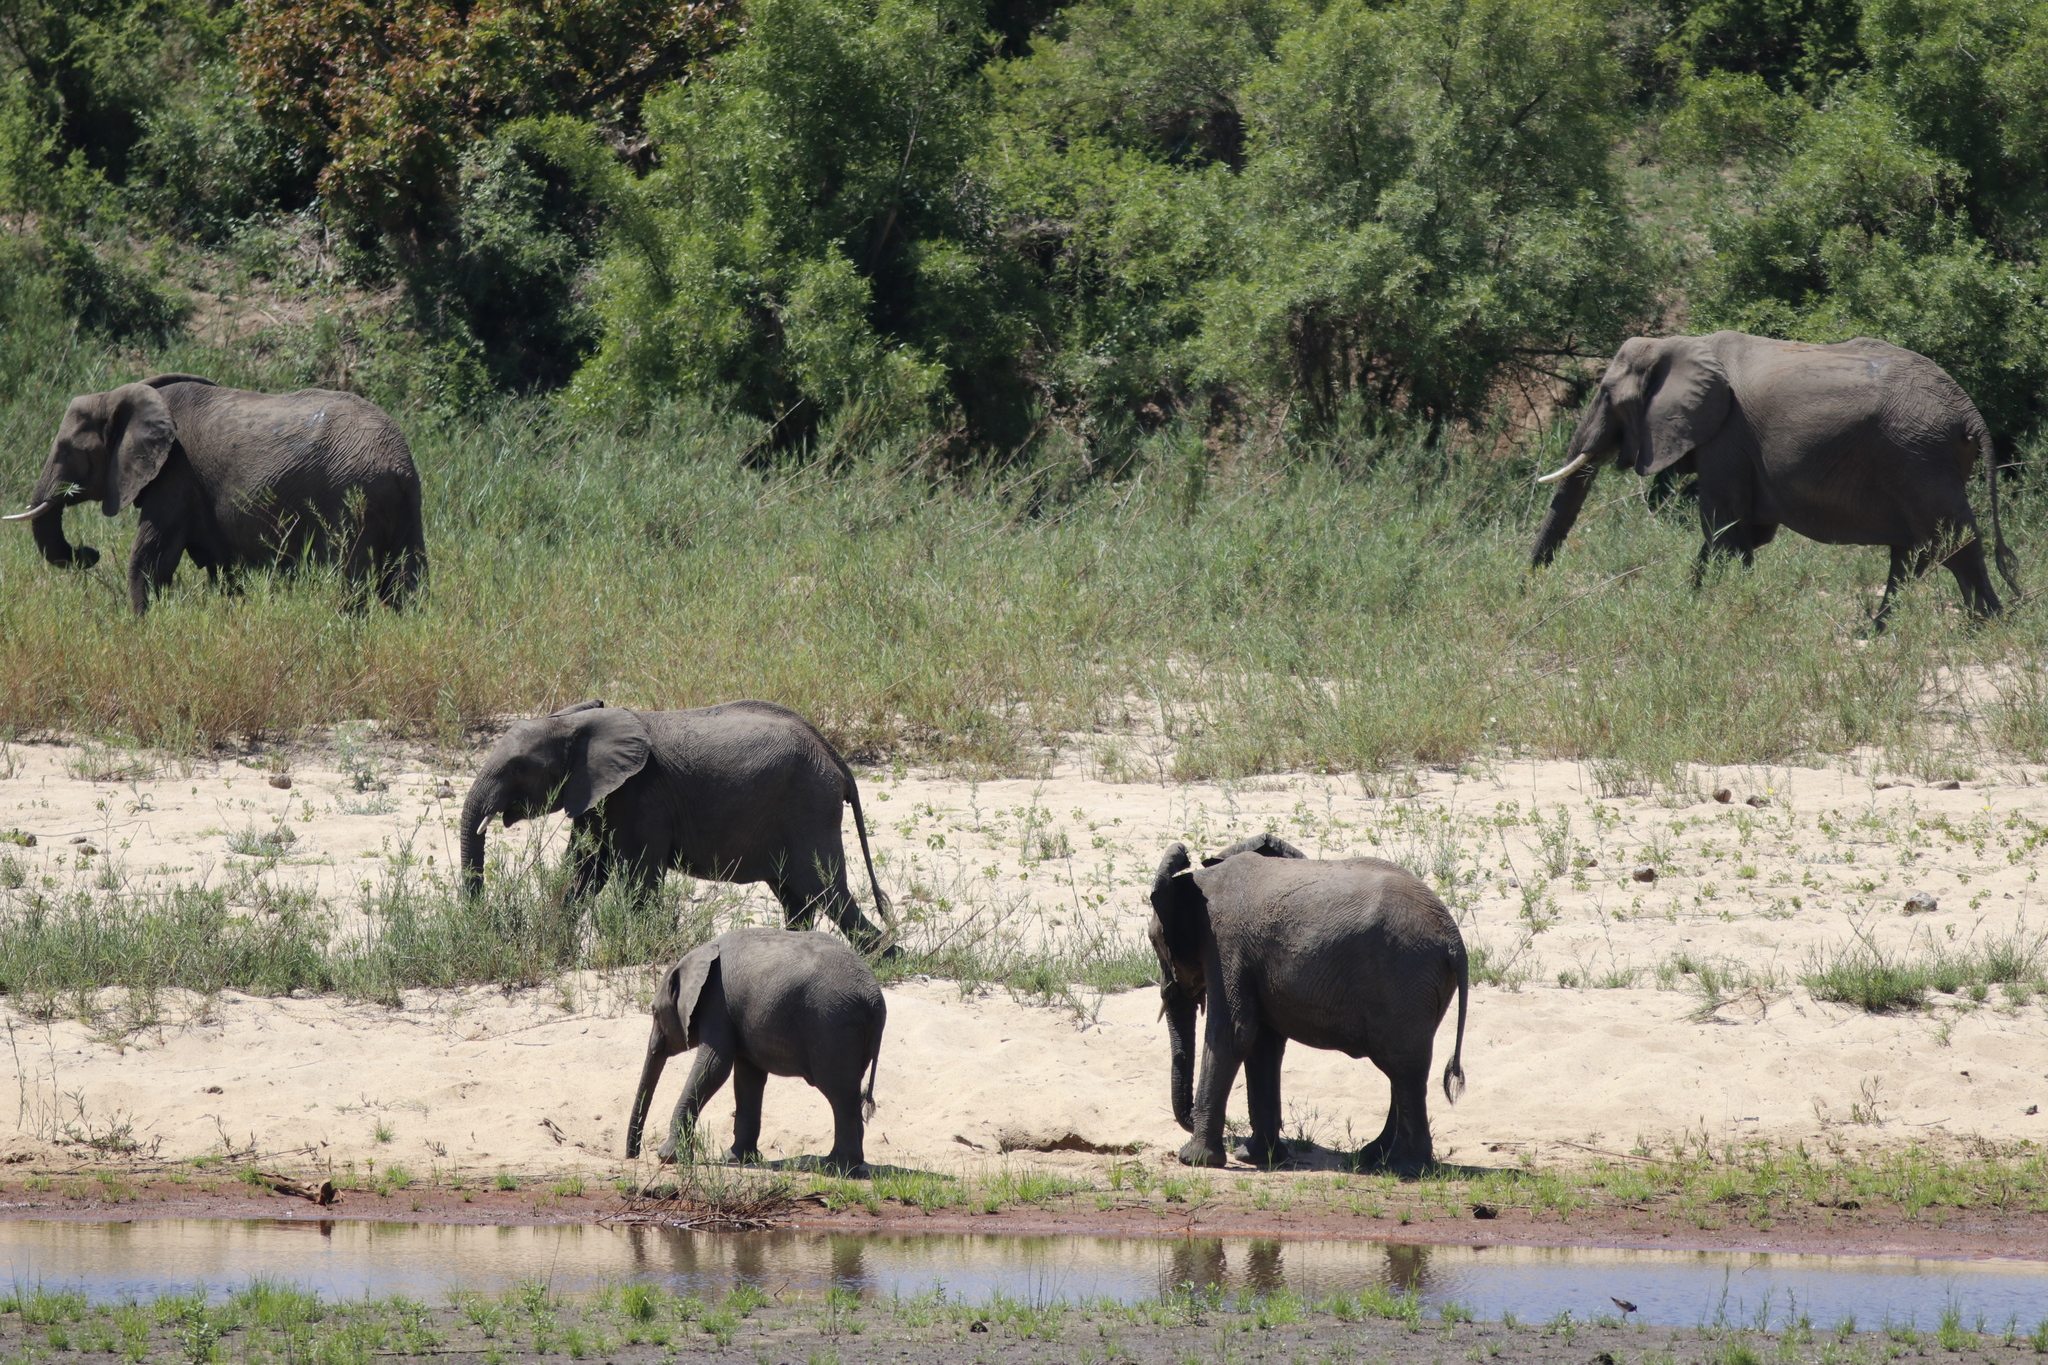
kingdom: Animalia
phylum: Chordata
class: Mammalia
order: Proboscidea
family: Elephantidae
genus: Loxodonta
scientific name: Loxodonta africana
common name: African elephant
